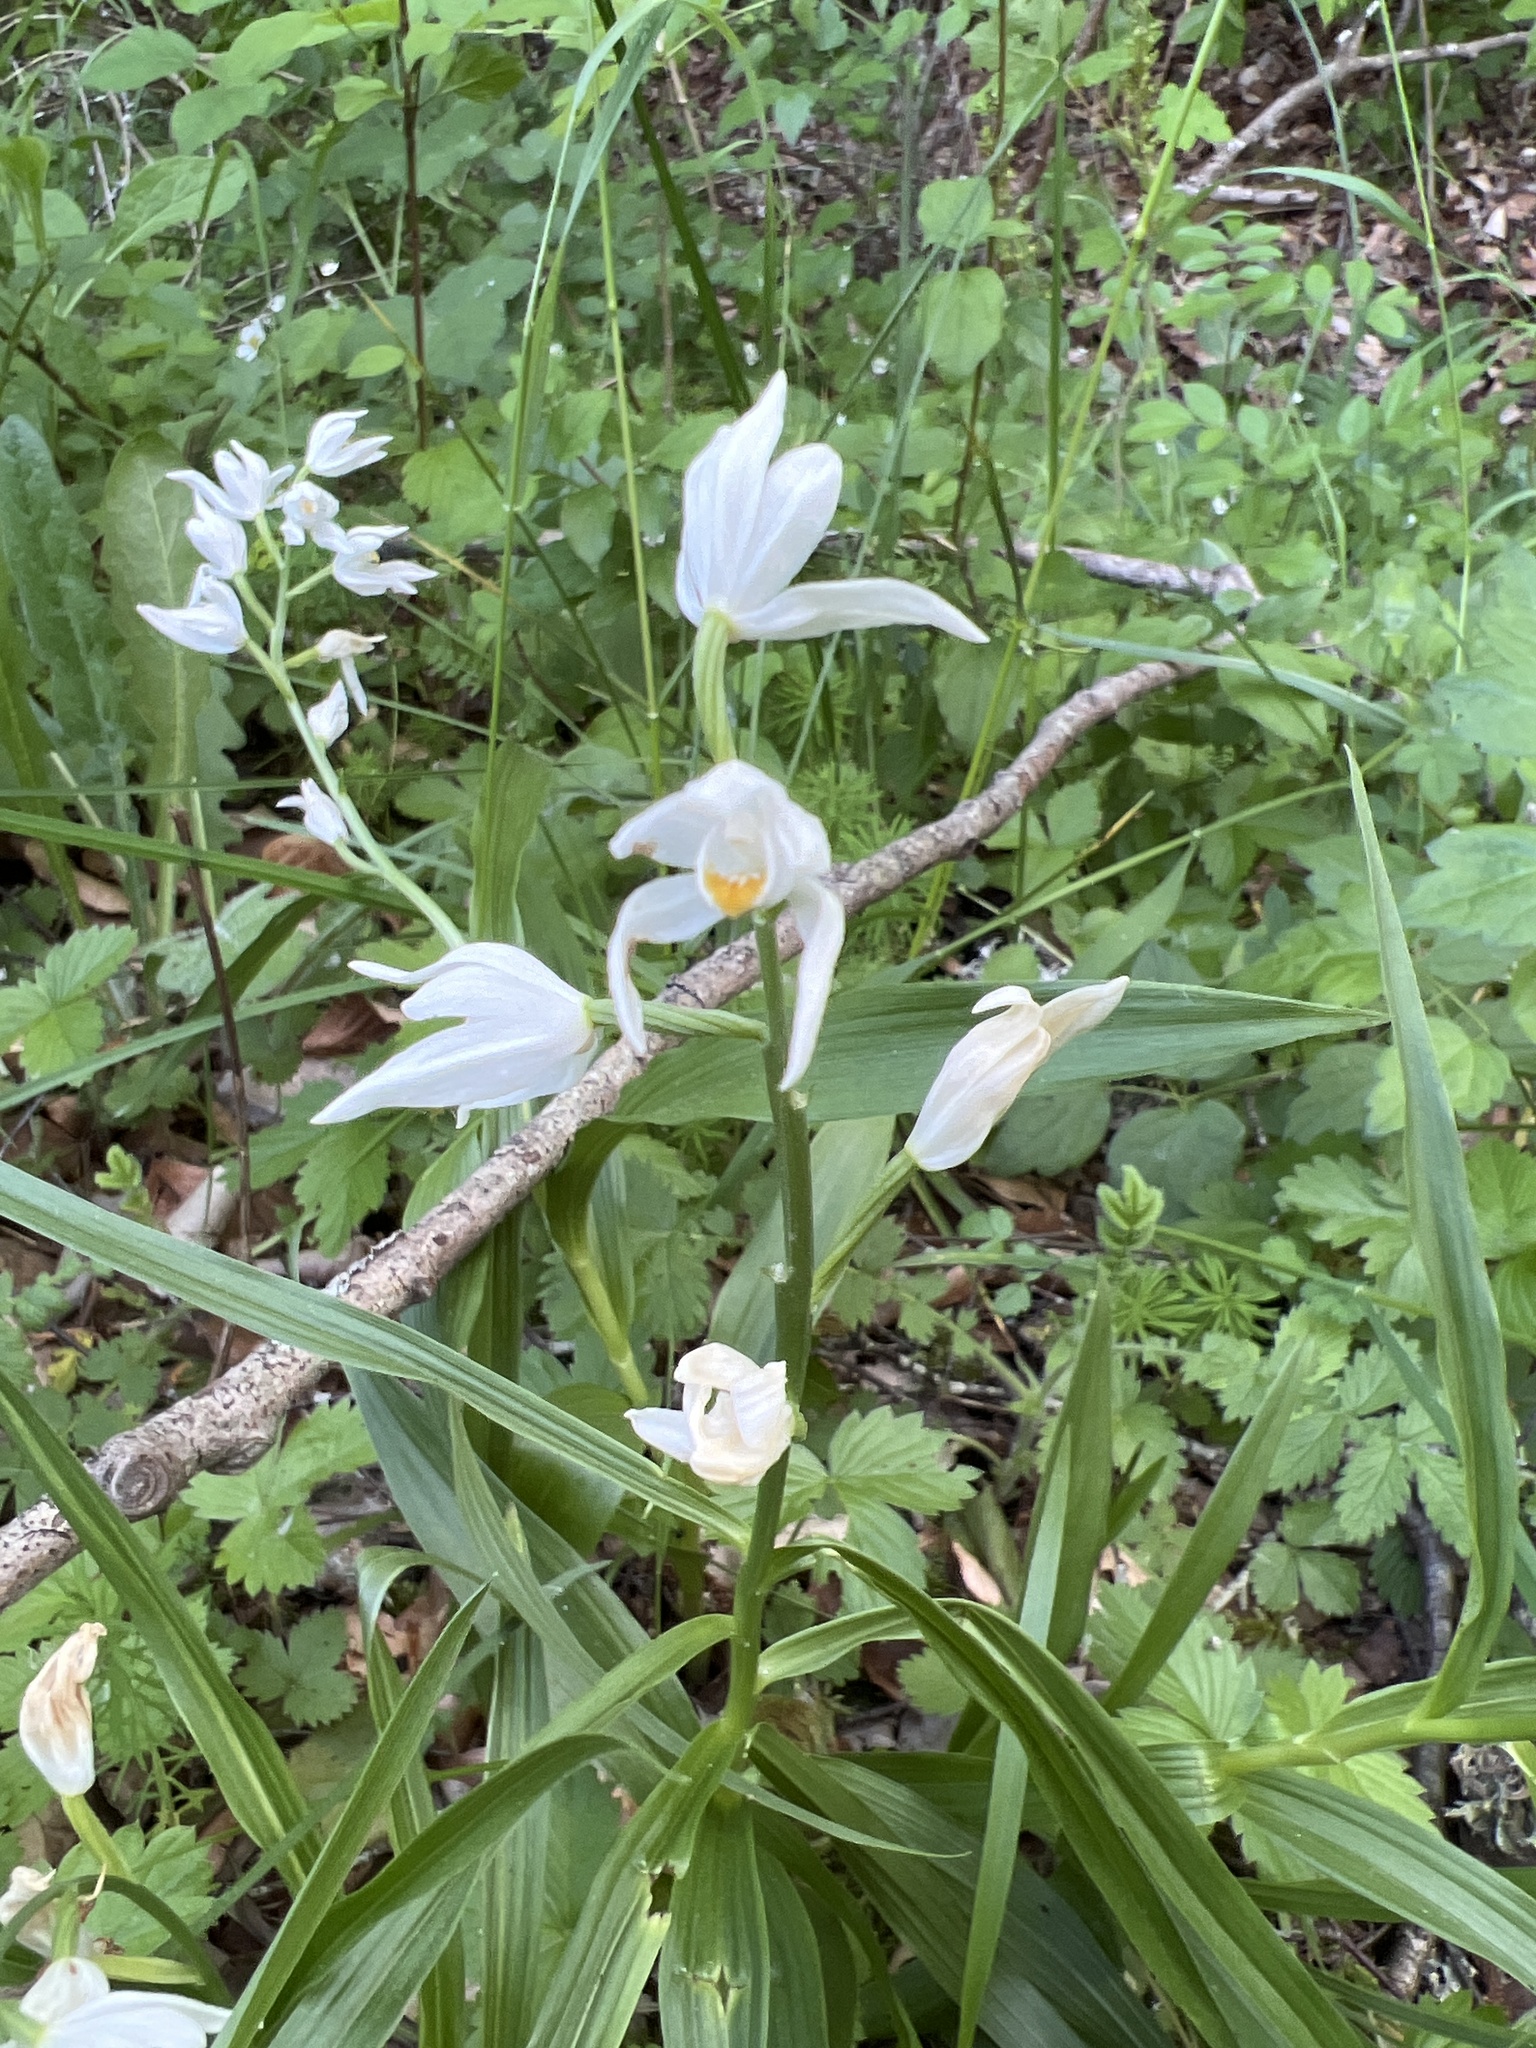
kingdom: Plantae
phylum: Tracheophyta
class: Liliopsida
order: Asparagales
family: Orchidaceae
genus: Cephalanthera
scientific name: Cephalanthera longifolia
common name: Narrow-leaved helleborine
